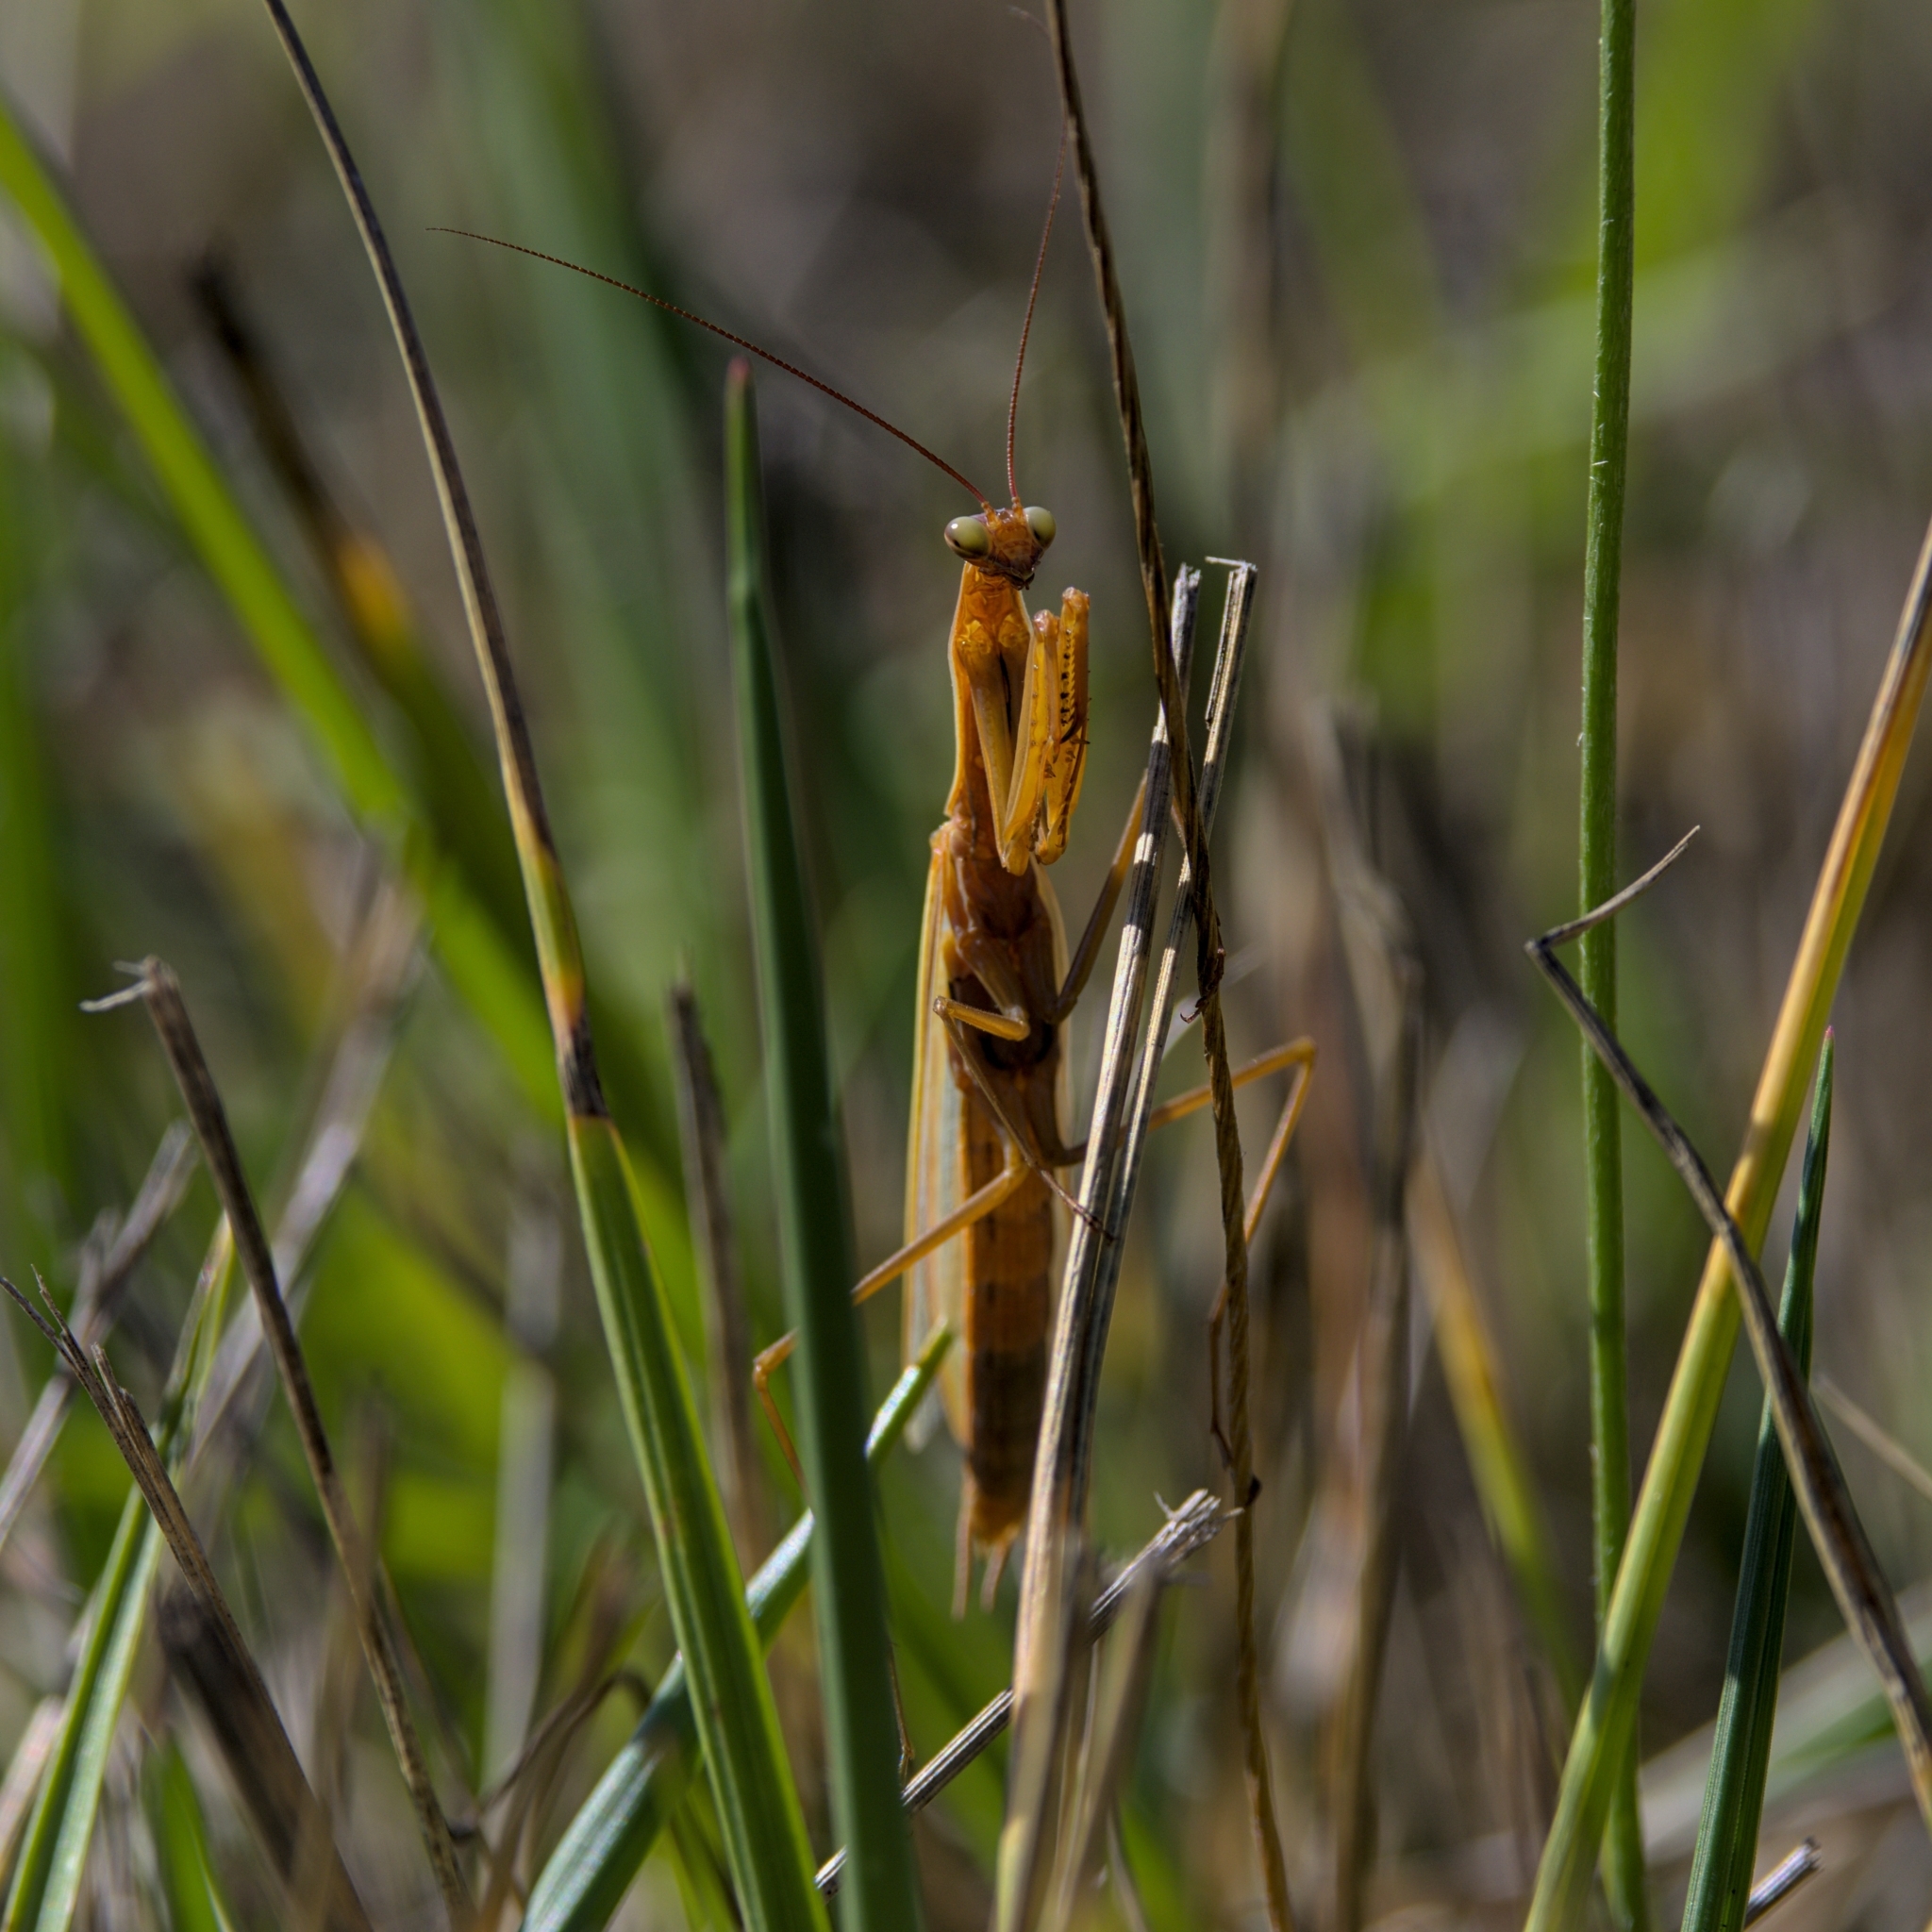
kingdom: Animalia
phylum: Arthropoda
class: Insecta
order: Mantodea
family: Mantidae
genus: Mantis
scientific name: Mantis religiosa
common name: Praying mantis
